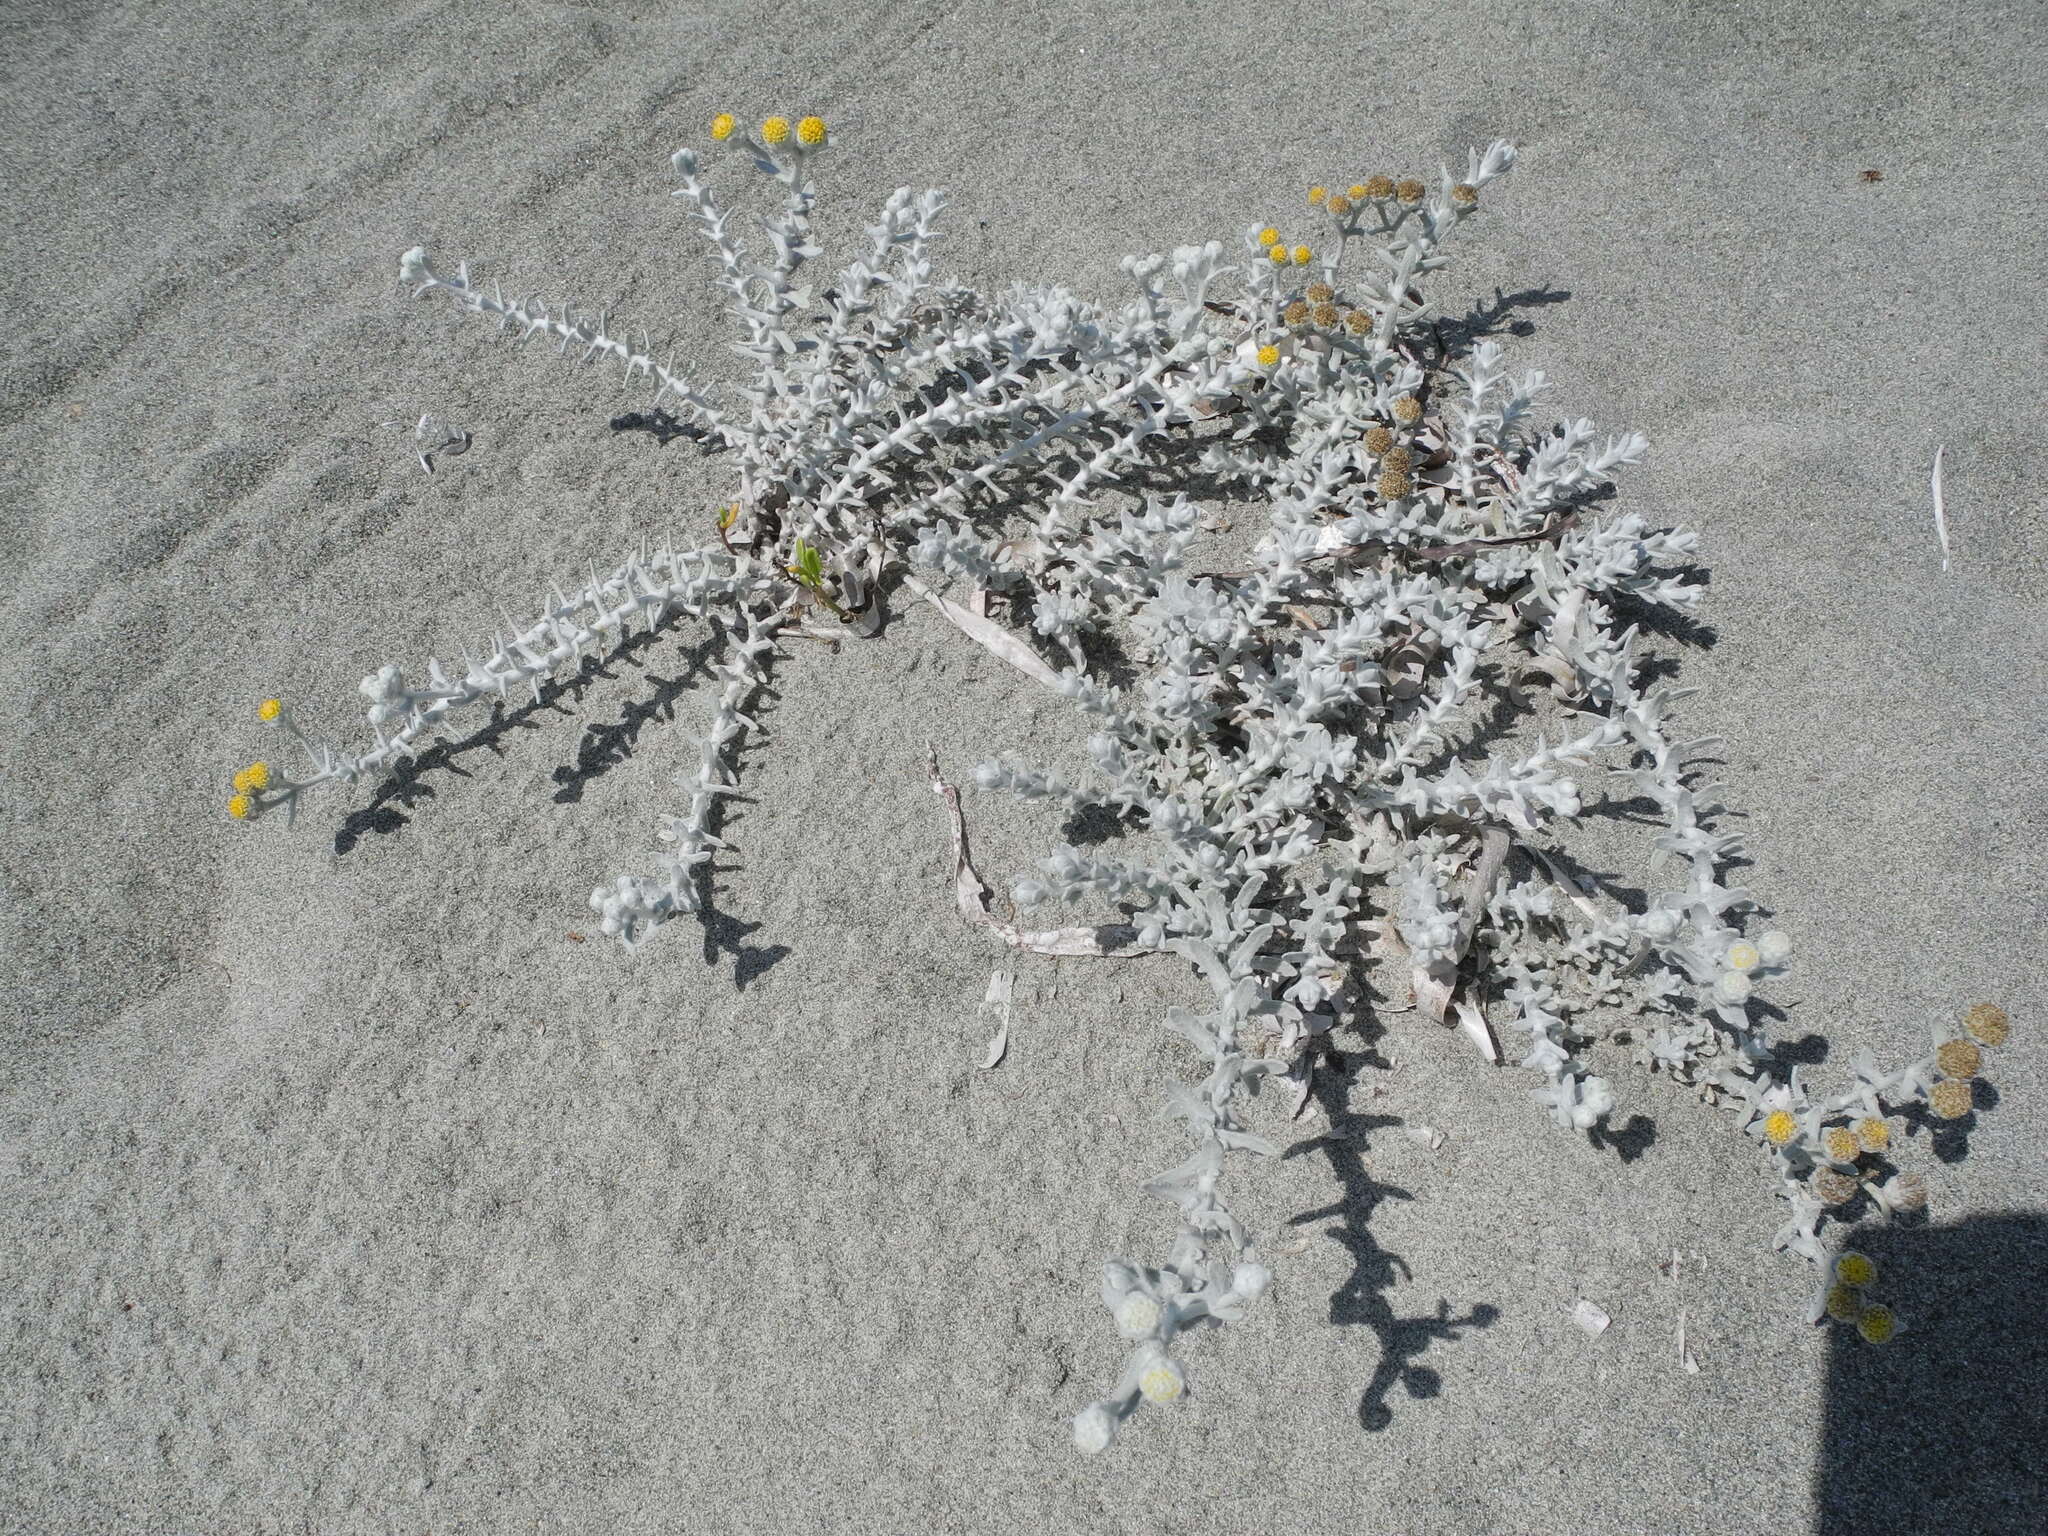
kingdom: Plantae
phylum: Tracheophyta
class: Magnoliopsida
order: Asterales
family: Asteraceae
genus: Achillea
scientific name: Achillea maritima
